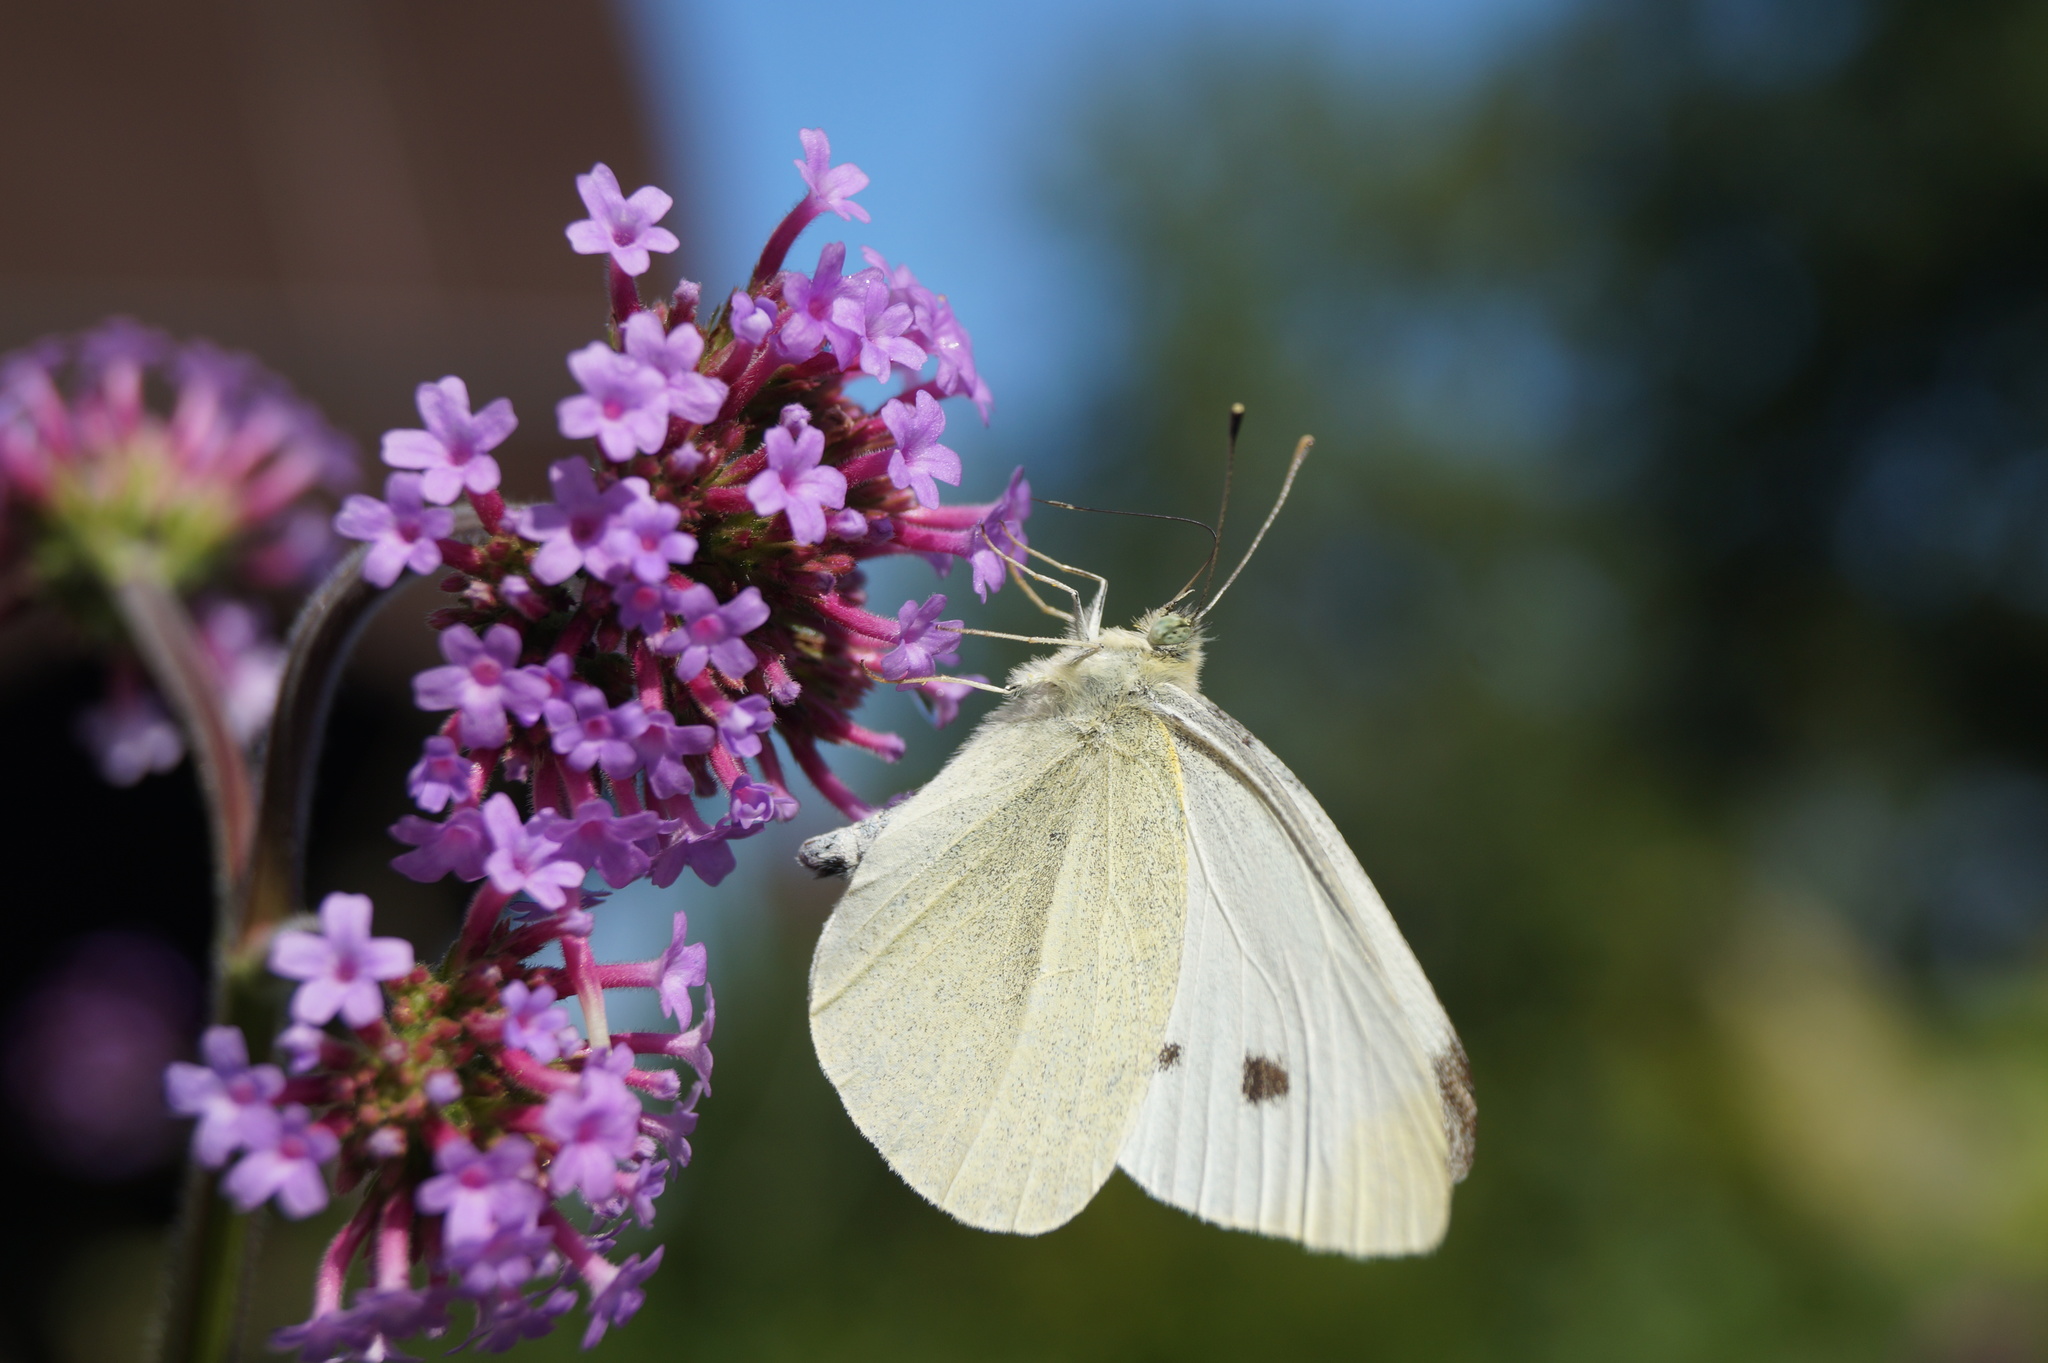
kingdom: Animalia
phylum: Arthropoda
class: Insecta
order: Lepidoptera
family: Pieridae
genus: Pieris
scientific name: Pieris rapae
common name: Small white
